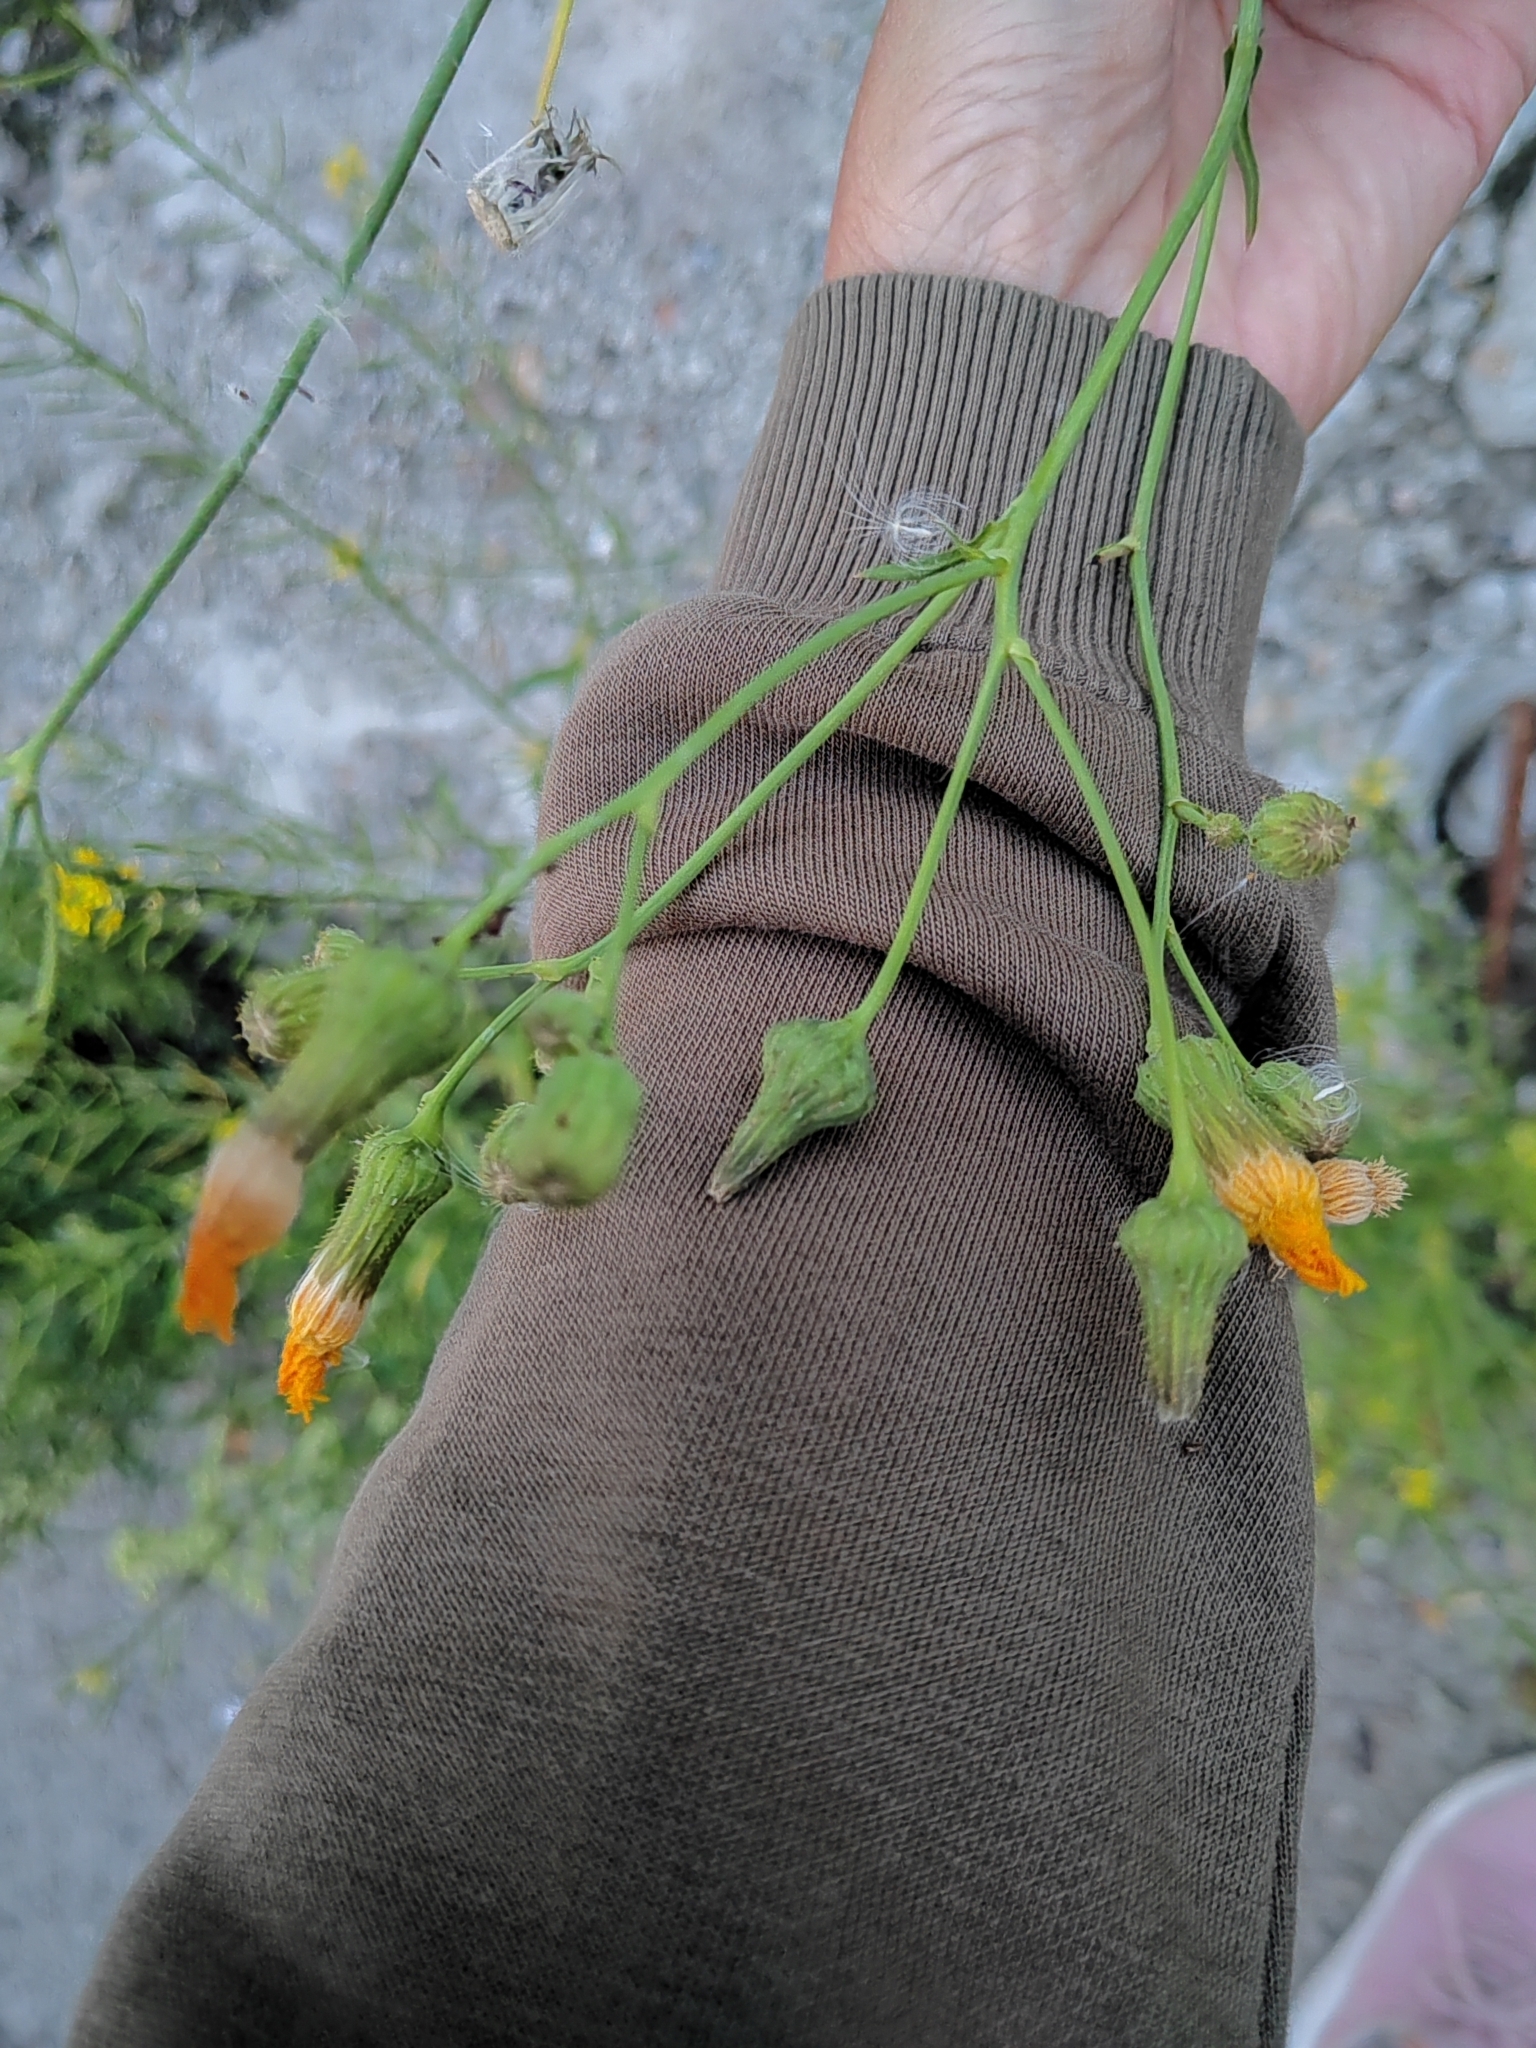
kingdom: Plantae
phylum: Tracheophyta
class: Magnoliopsida
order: Asterales
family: Asteraceae
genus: Sonchus
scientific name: Sonchus arvensis
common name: Perennial sow-thistle
